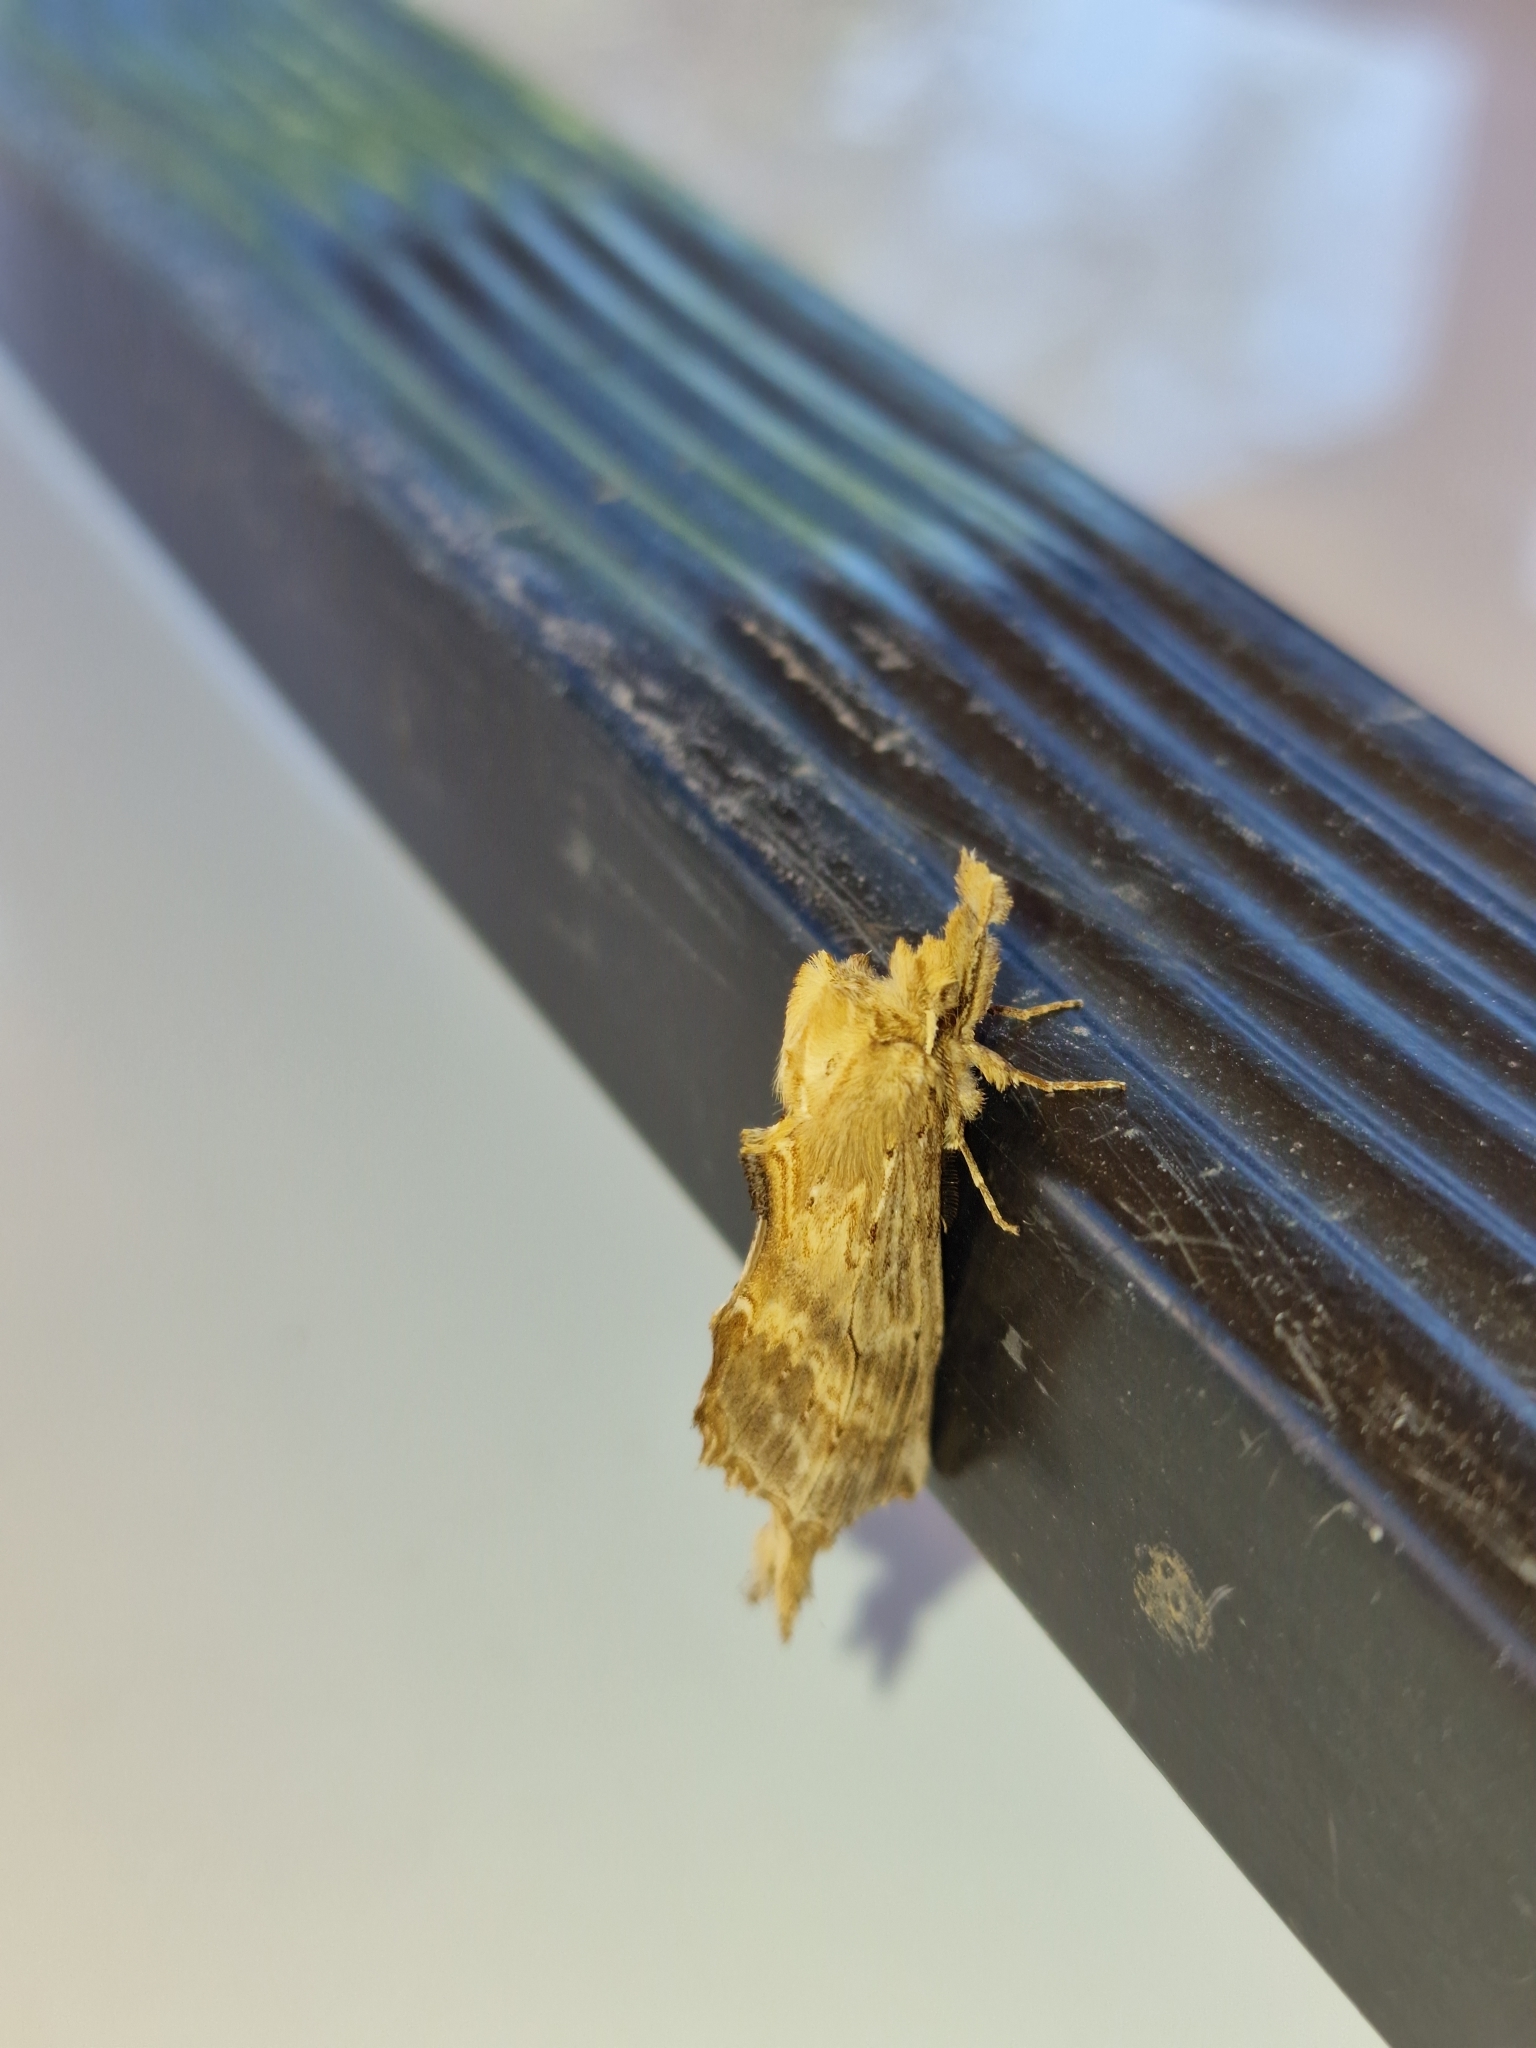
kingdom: Animalia
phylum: Arthropoda
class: Insecta
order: Lepidoptera
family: Notodontidae
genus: Pterostoma
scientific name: Pterostoma palpina
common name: Pale prominent
